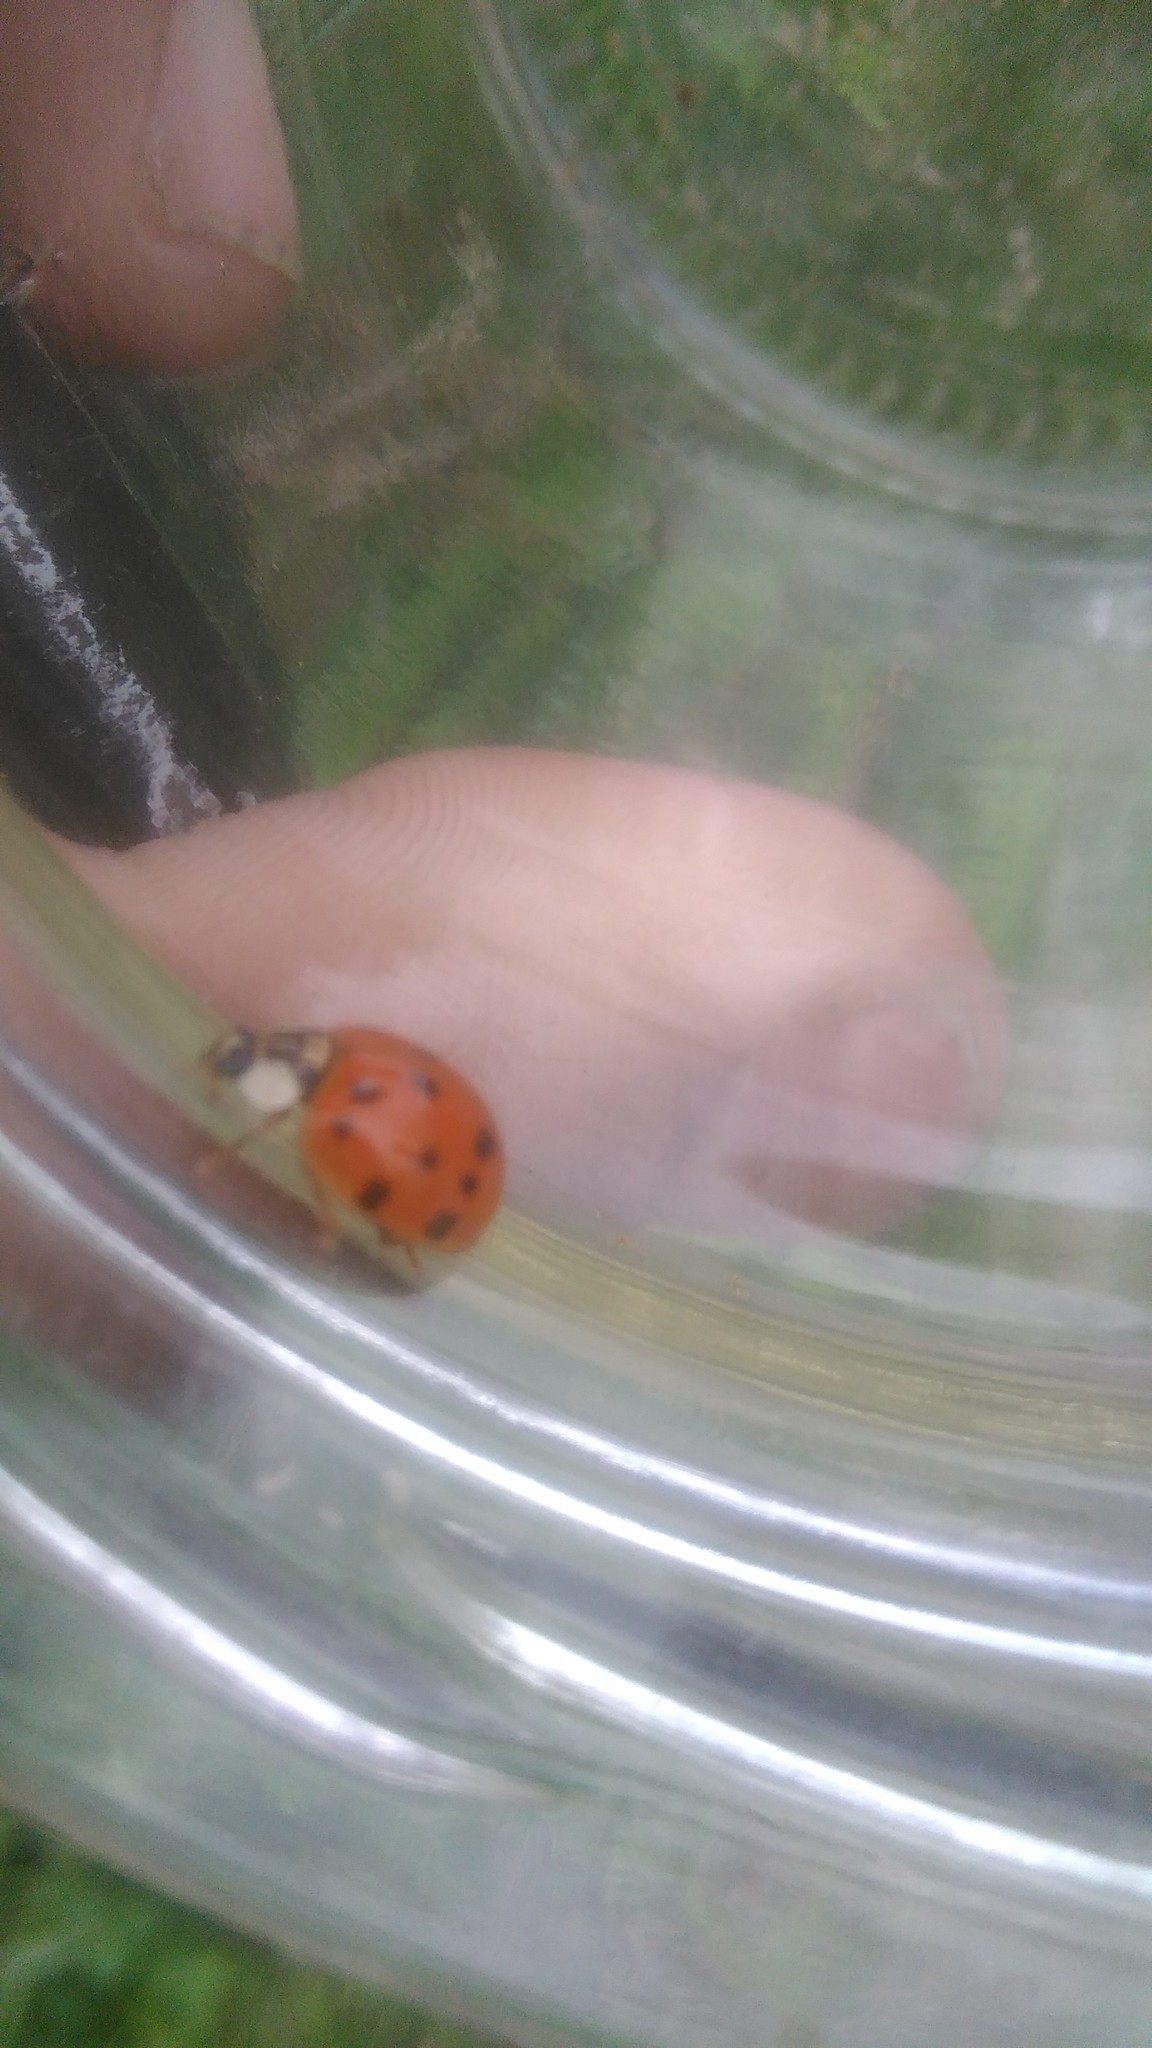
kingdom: Animalia
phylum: Arthropoda
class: Insecta
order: Coleoptera
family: Coccinellidae
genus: Harmonia
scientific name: Harmonia axyridis
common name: Harlequin ladybird
